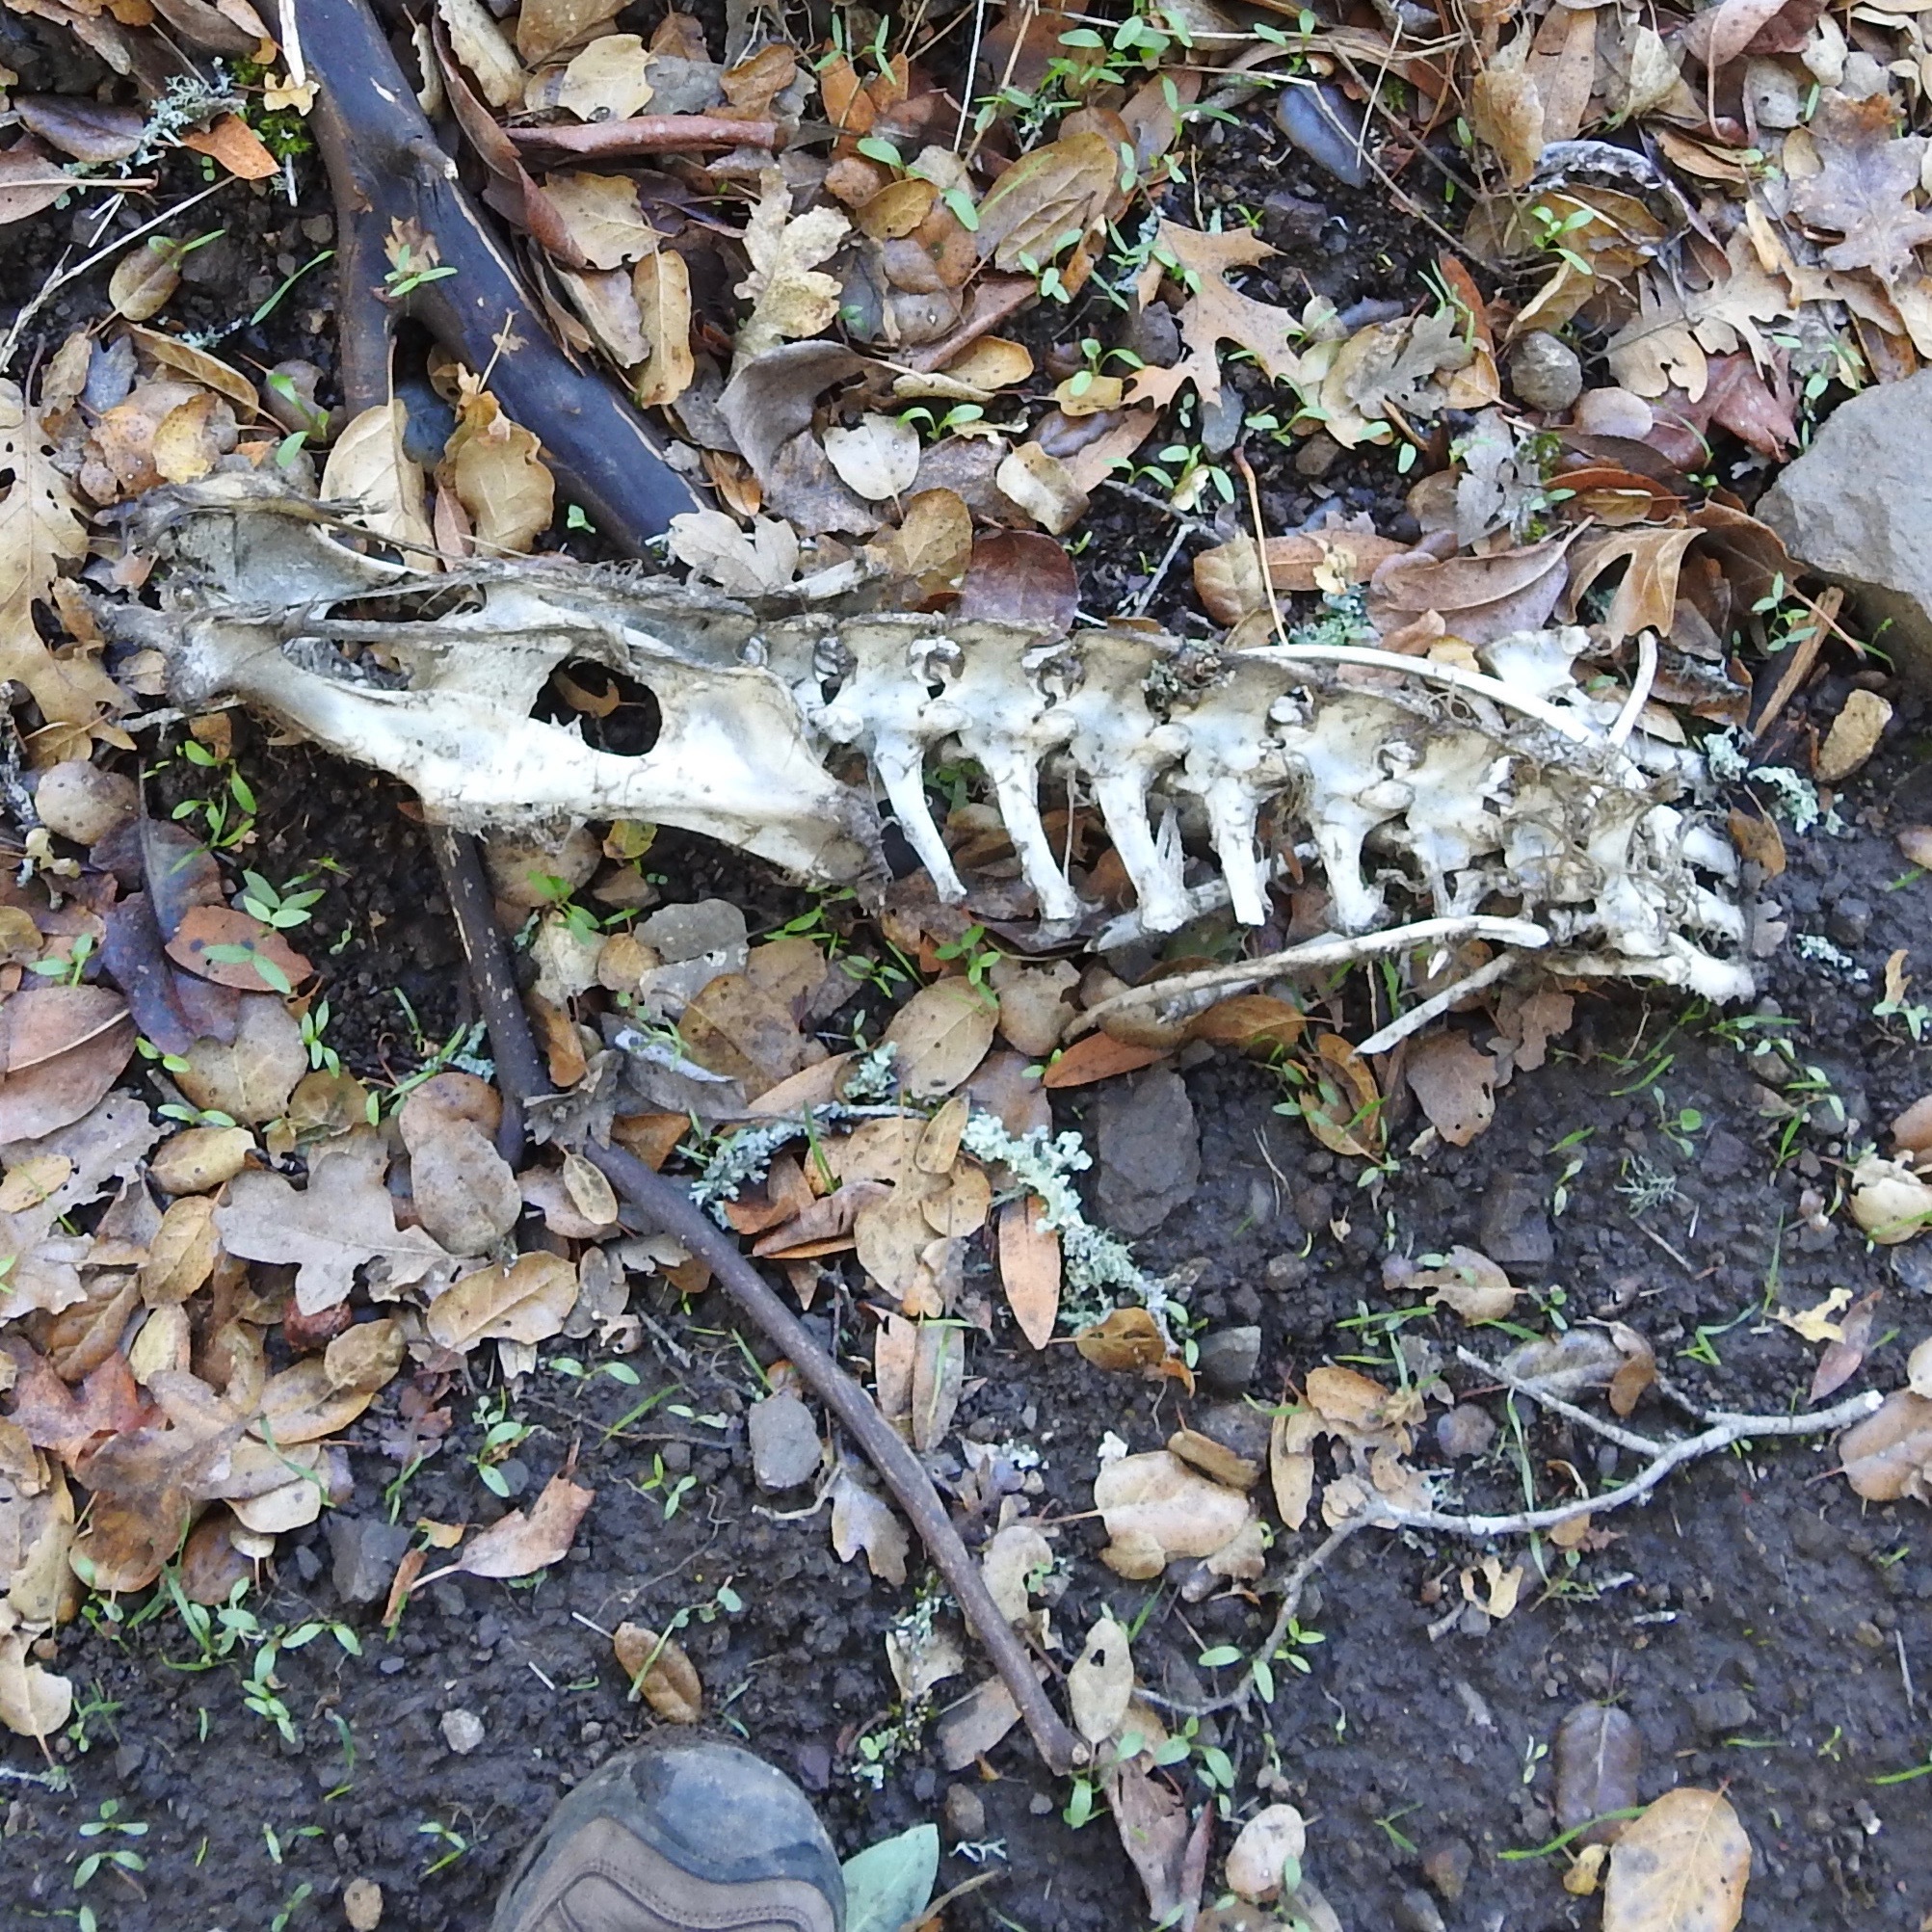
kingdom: Animalia
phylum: Chordata
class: Mammalia
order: Artiodactyla
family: Cervidae
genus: Odocoileus
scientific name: Odocoileus hemionus
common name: Mule deer
